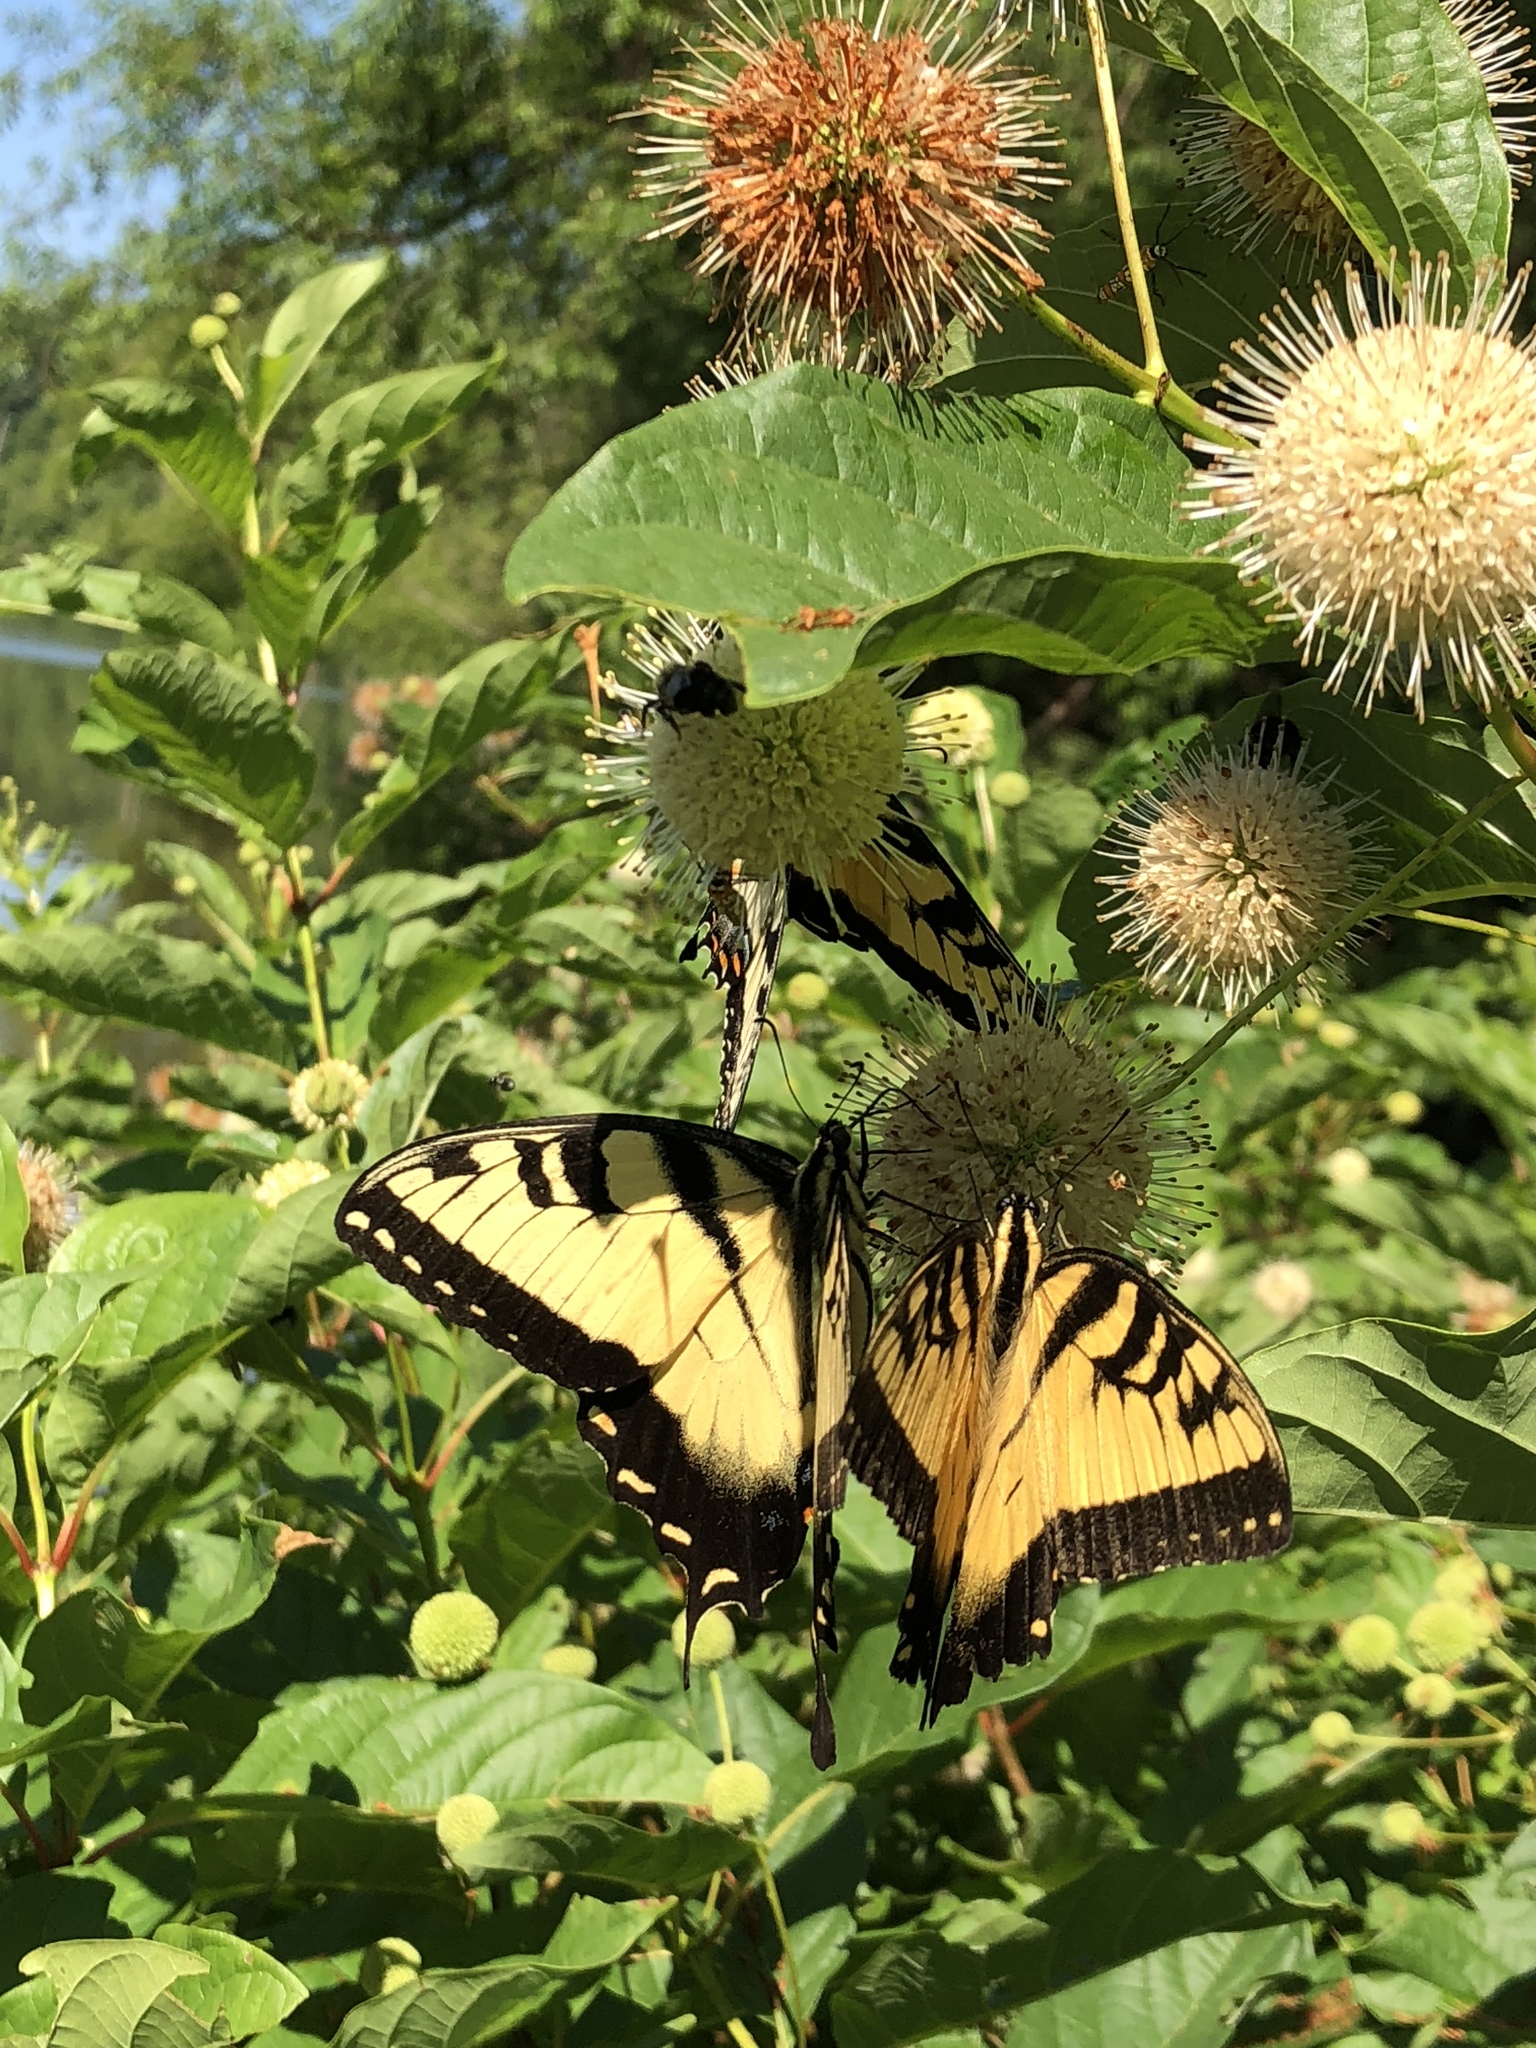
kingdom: Animalia
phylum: Arthropoda
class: Insecta
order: Lepidoptera
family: Papilionidae
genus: Papilio
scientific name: Papilio glaucus
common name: Tiger swallowtail
